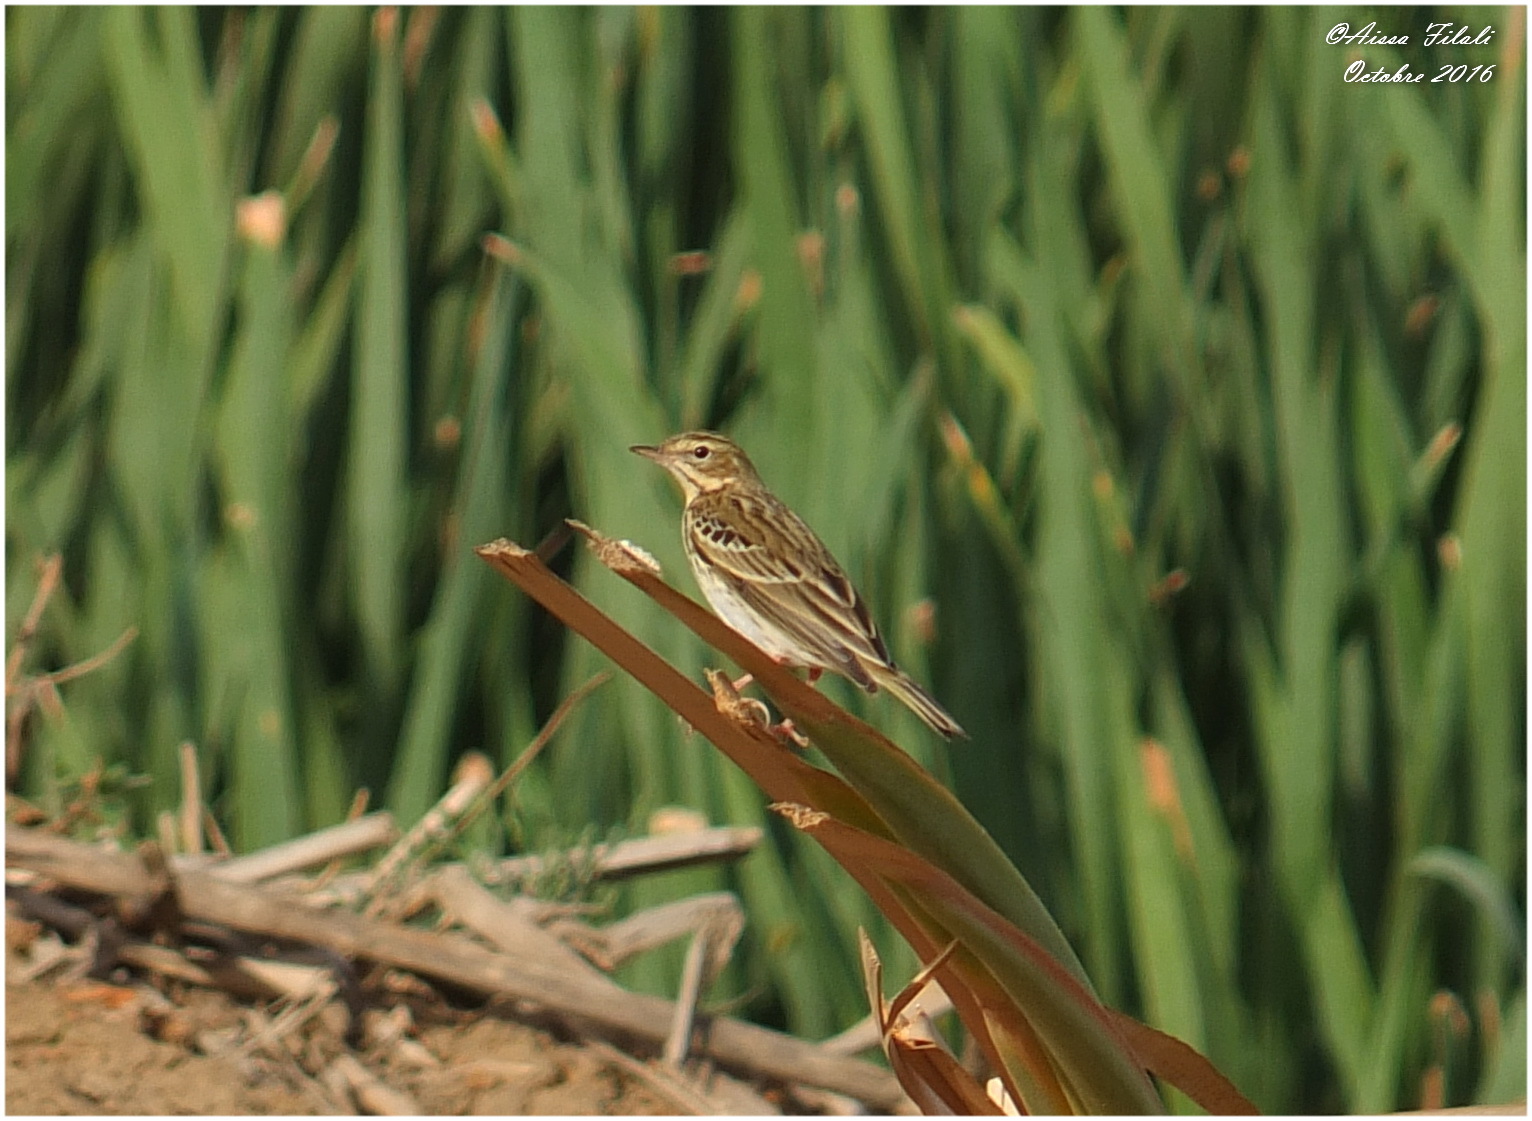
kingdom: Animalia
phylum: Chordata
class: Aves
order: Passeriformes
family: Motacillidae
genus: Anthus
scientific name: Anthus trivialis
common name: Tree pipit
